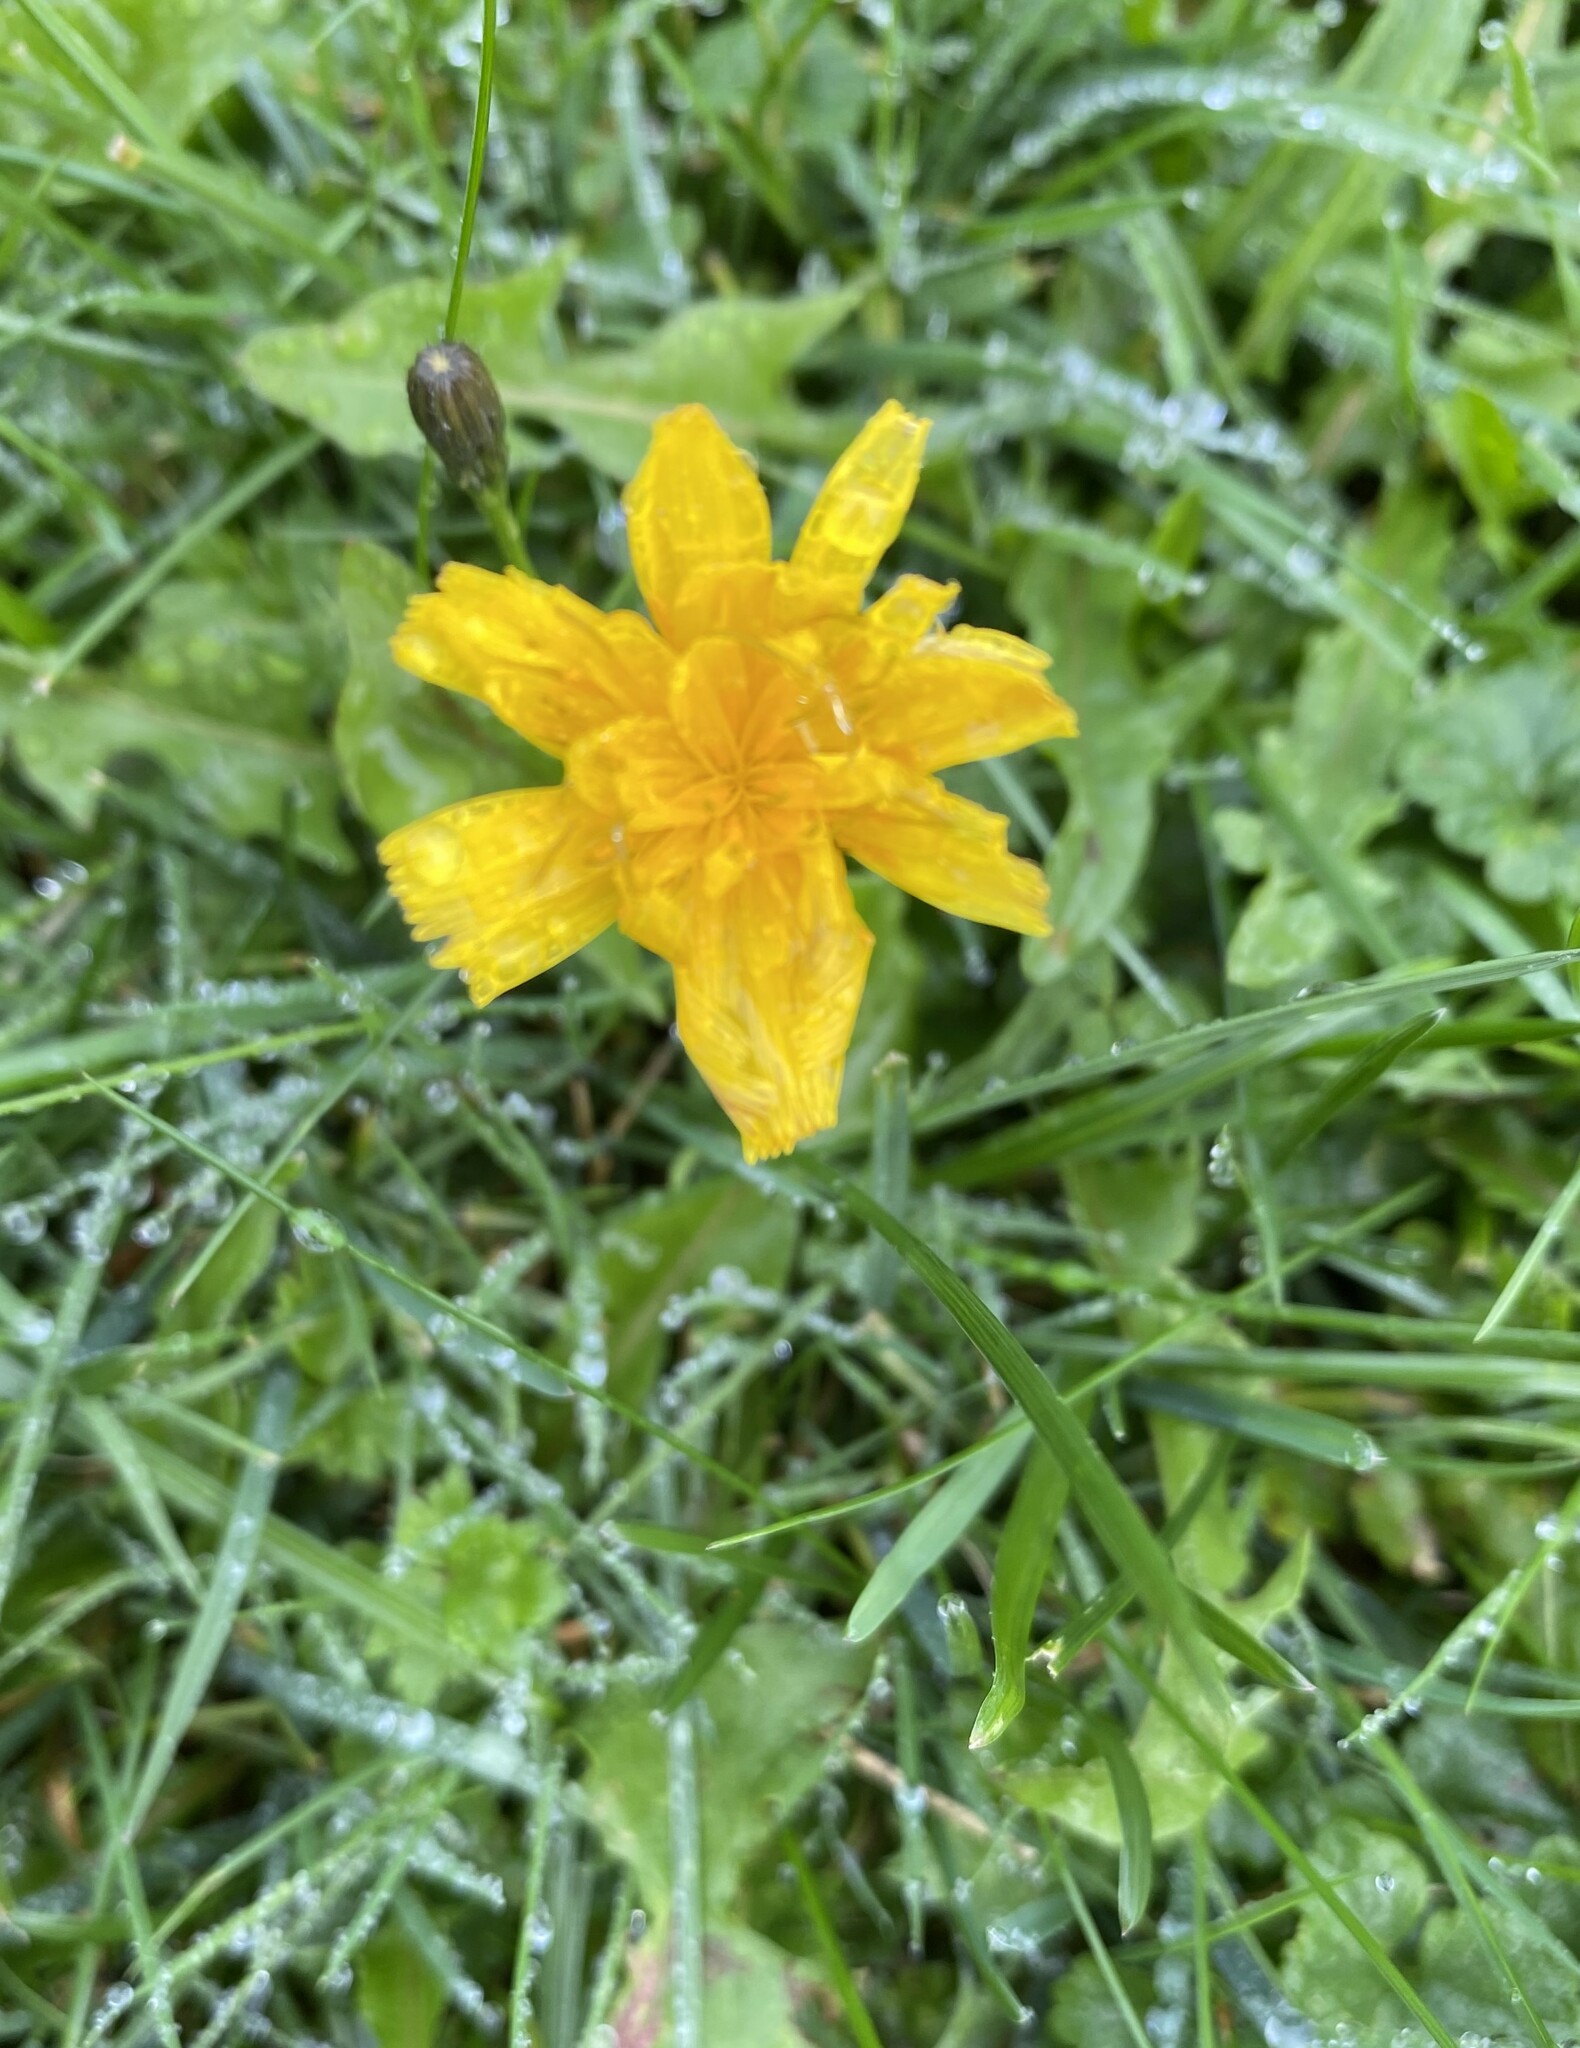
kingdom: Plantae
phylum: Tracheophyta
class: Magnoliopsida
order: Asterales
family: Asteraceae
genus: Scorzoneroides
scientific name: Scorzoneroides autumnalis
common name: Autumn hawkbit
